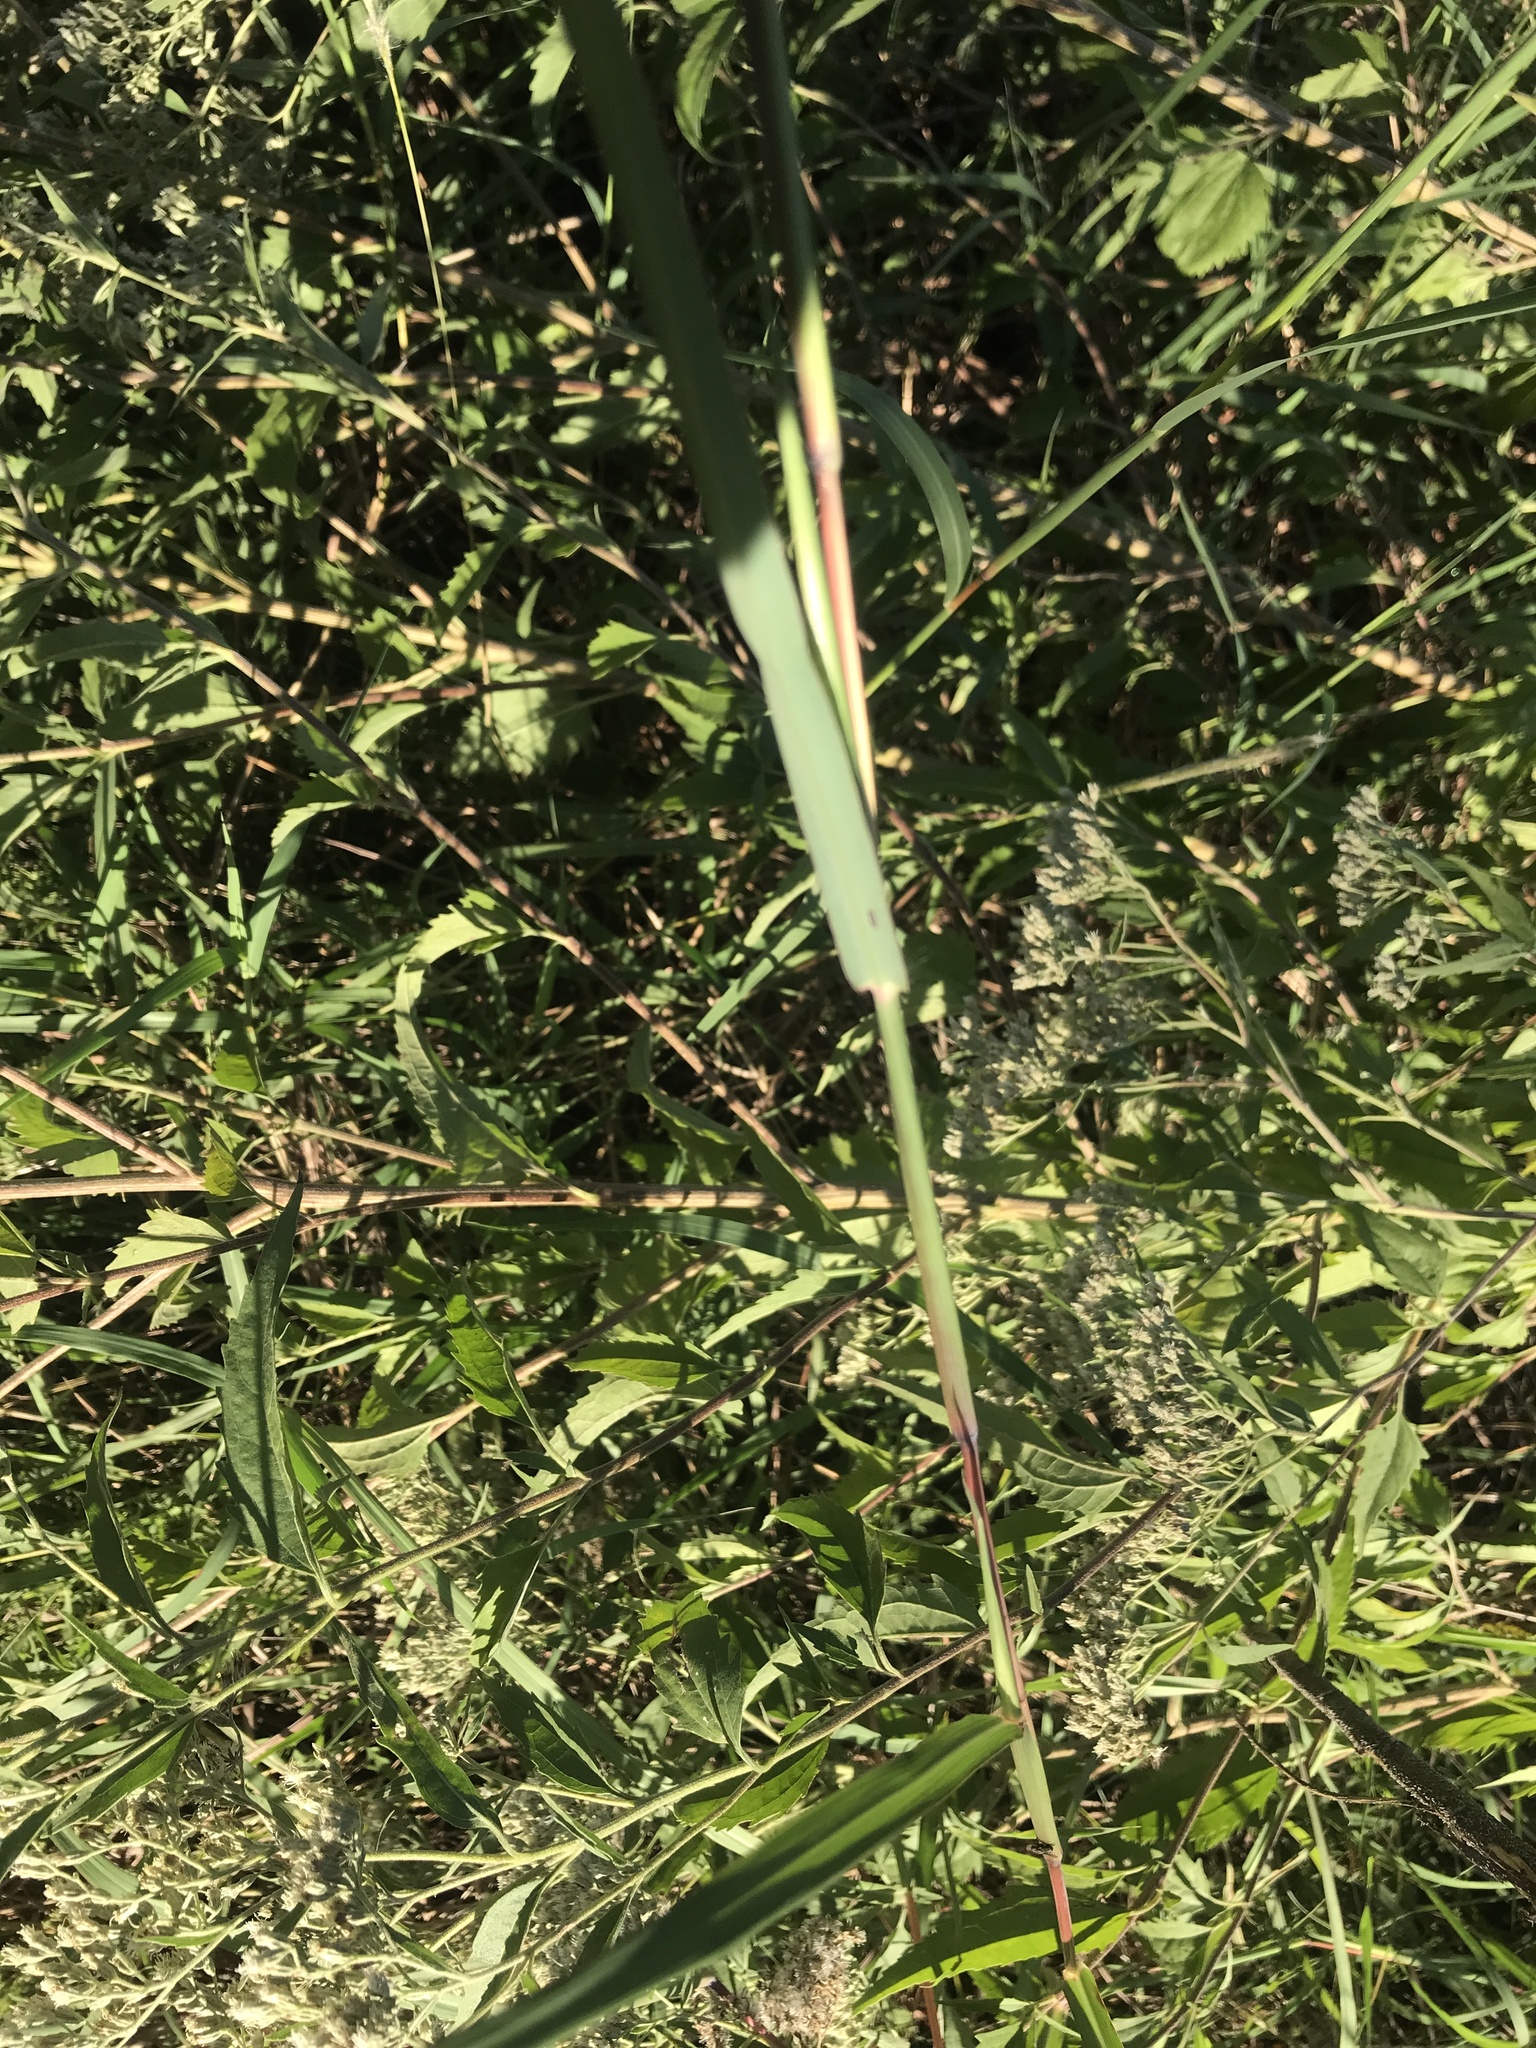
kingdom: Plantae
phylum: Tracheophyta
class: Liliopsida
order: Poales
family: Poaceae
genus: Dichanthium
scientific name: Dichanthium aristatum
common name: Angleton bluestem
